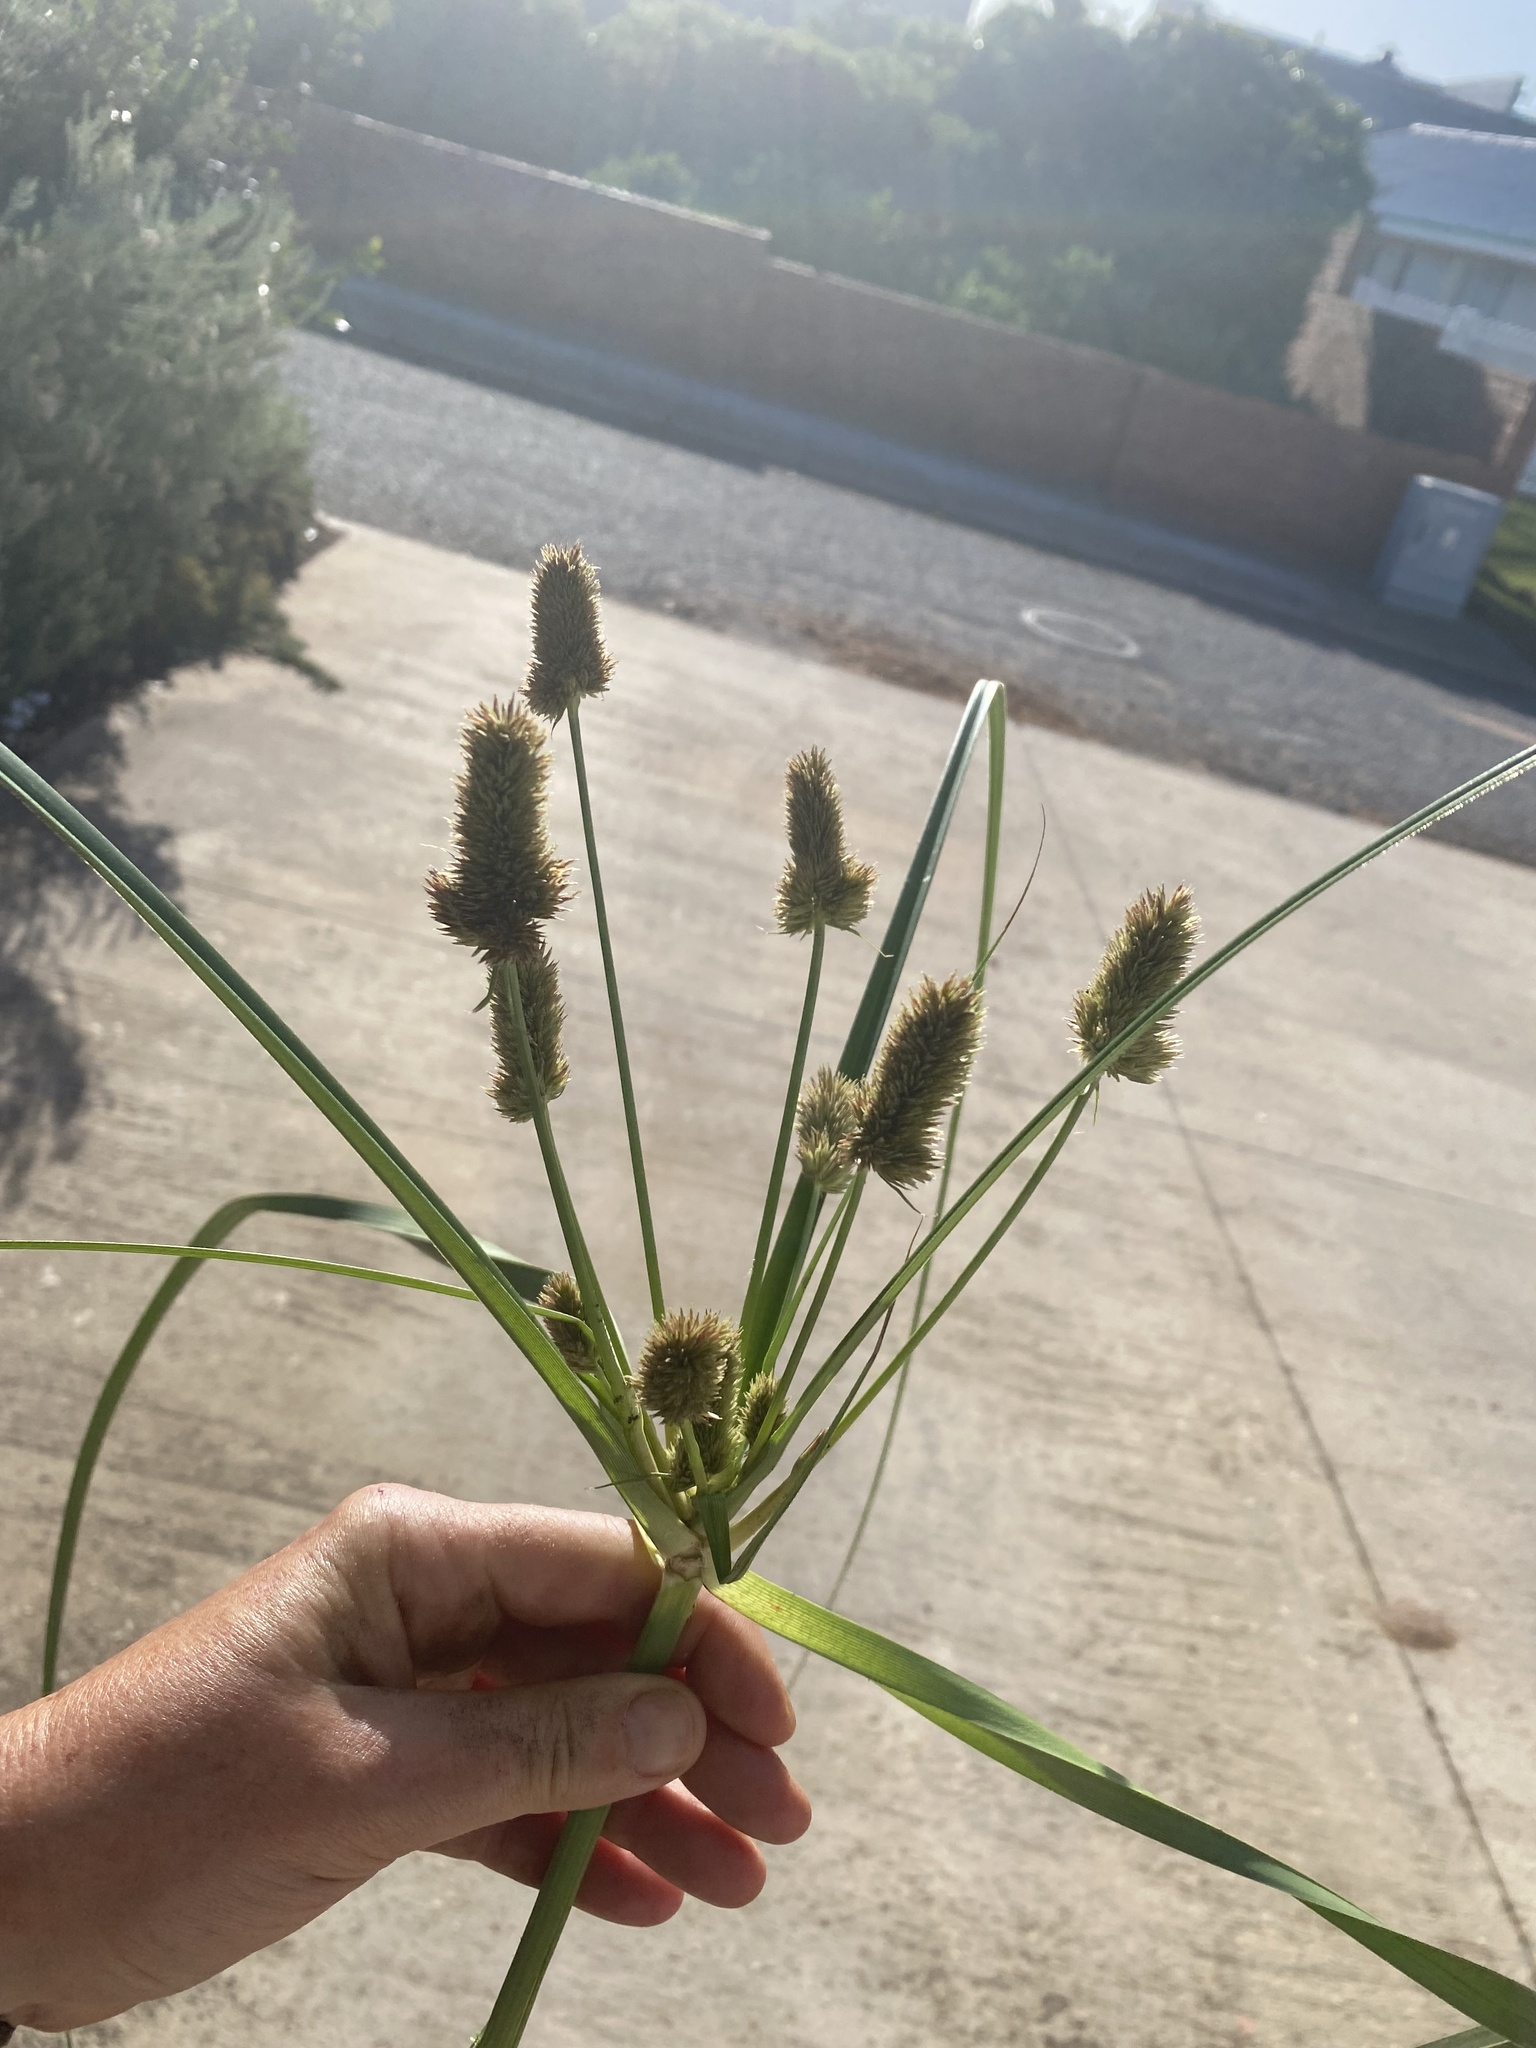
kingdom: Plantae
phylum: Tracheophyta
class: Liliopsida
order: Poales
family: Cyperaceae
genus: Cyperus
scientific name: Cyperus thunbergii
